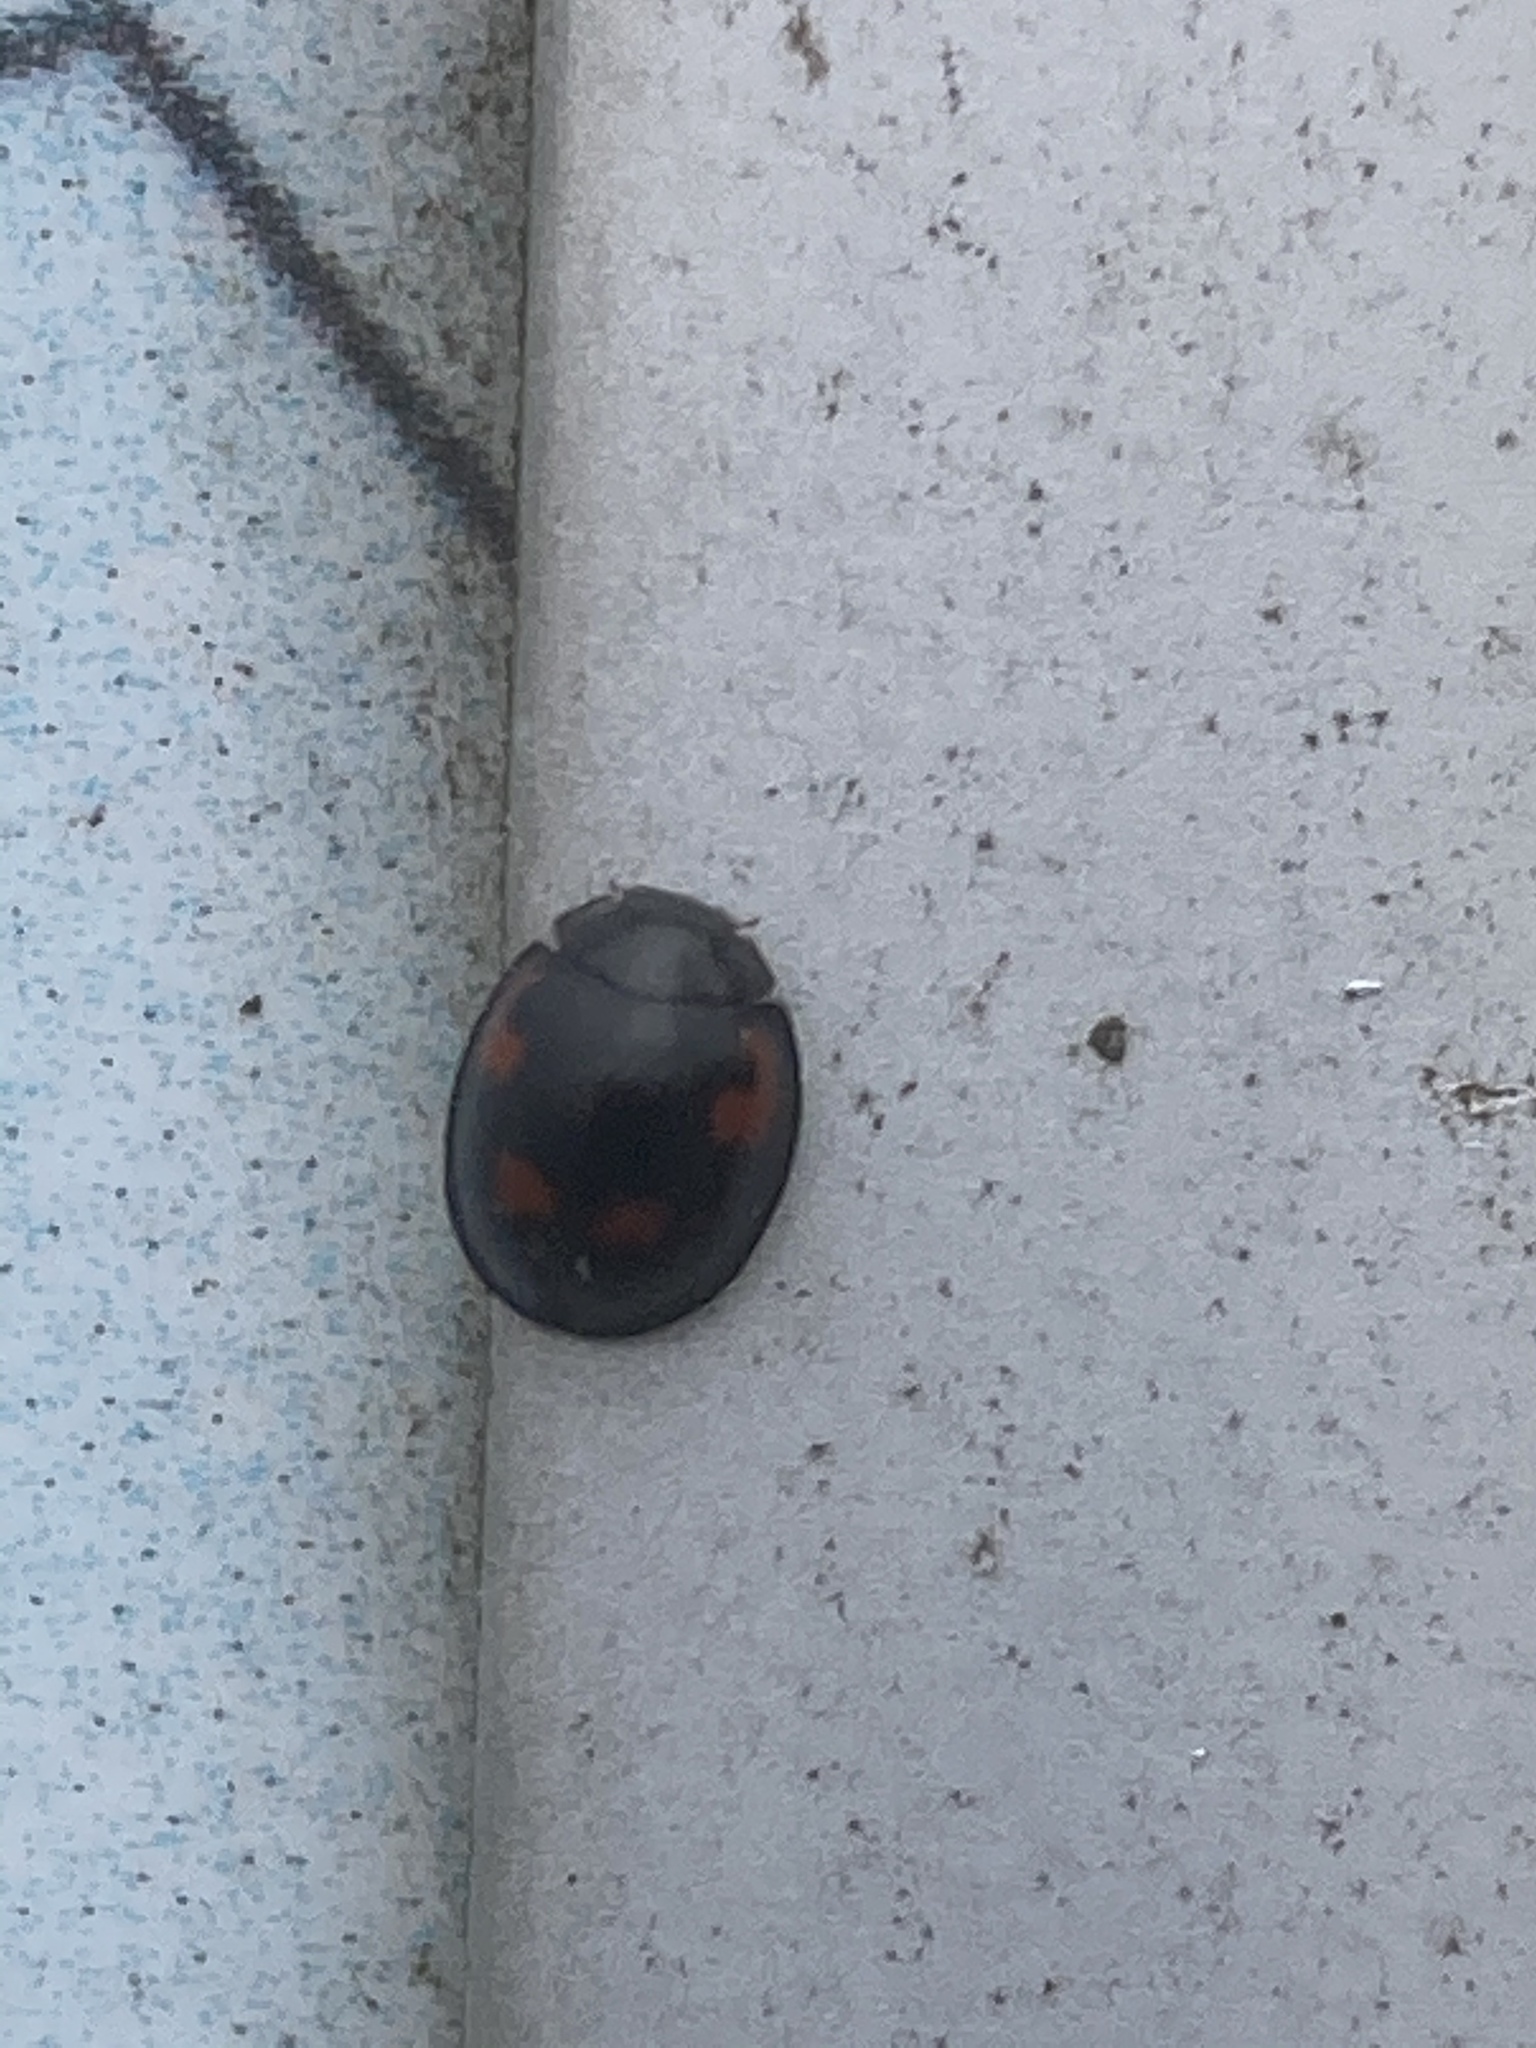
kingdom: Animalia
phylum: Arthropoda
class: Insecta
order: Coleoptera
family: Coccinellidae
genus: Brumus
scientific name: Brumus quadripustulatus
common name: Ladybird beetle
